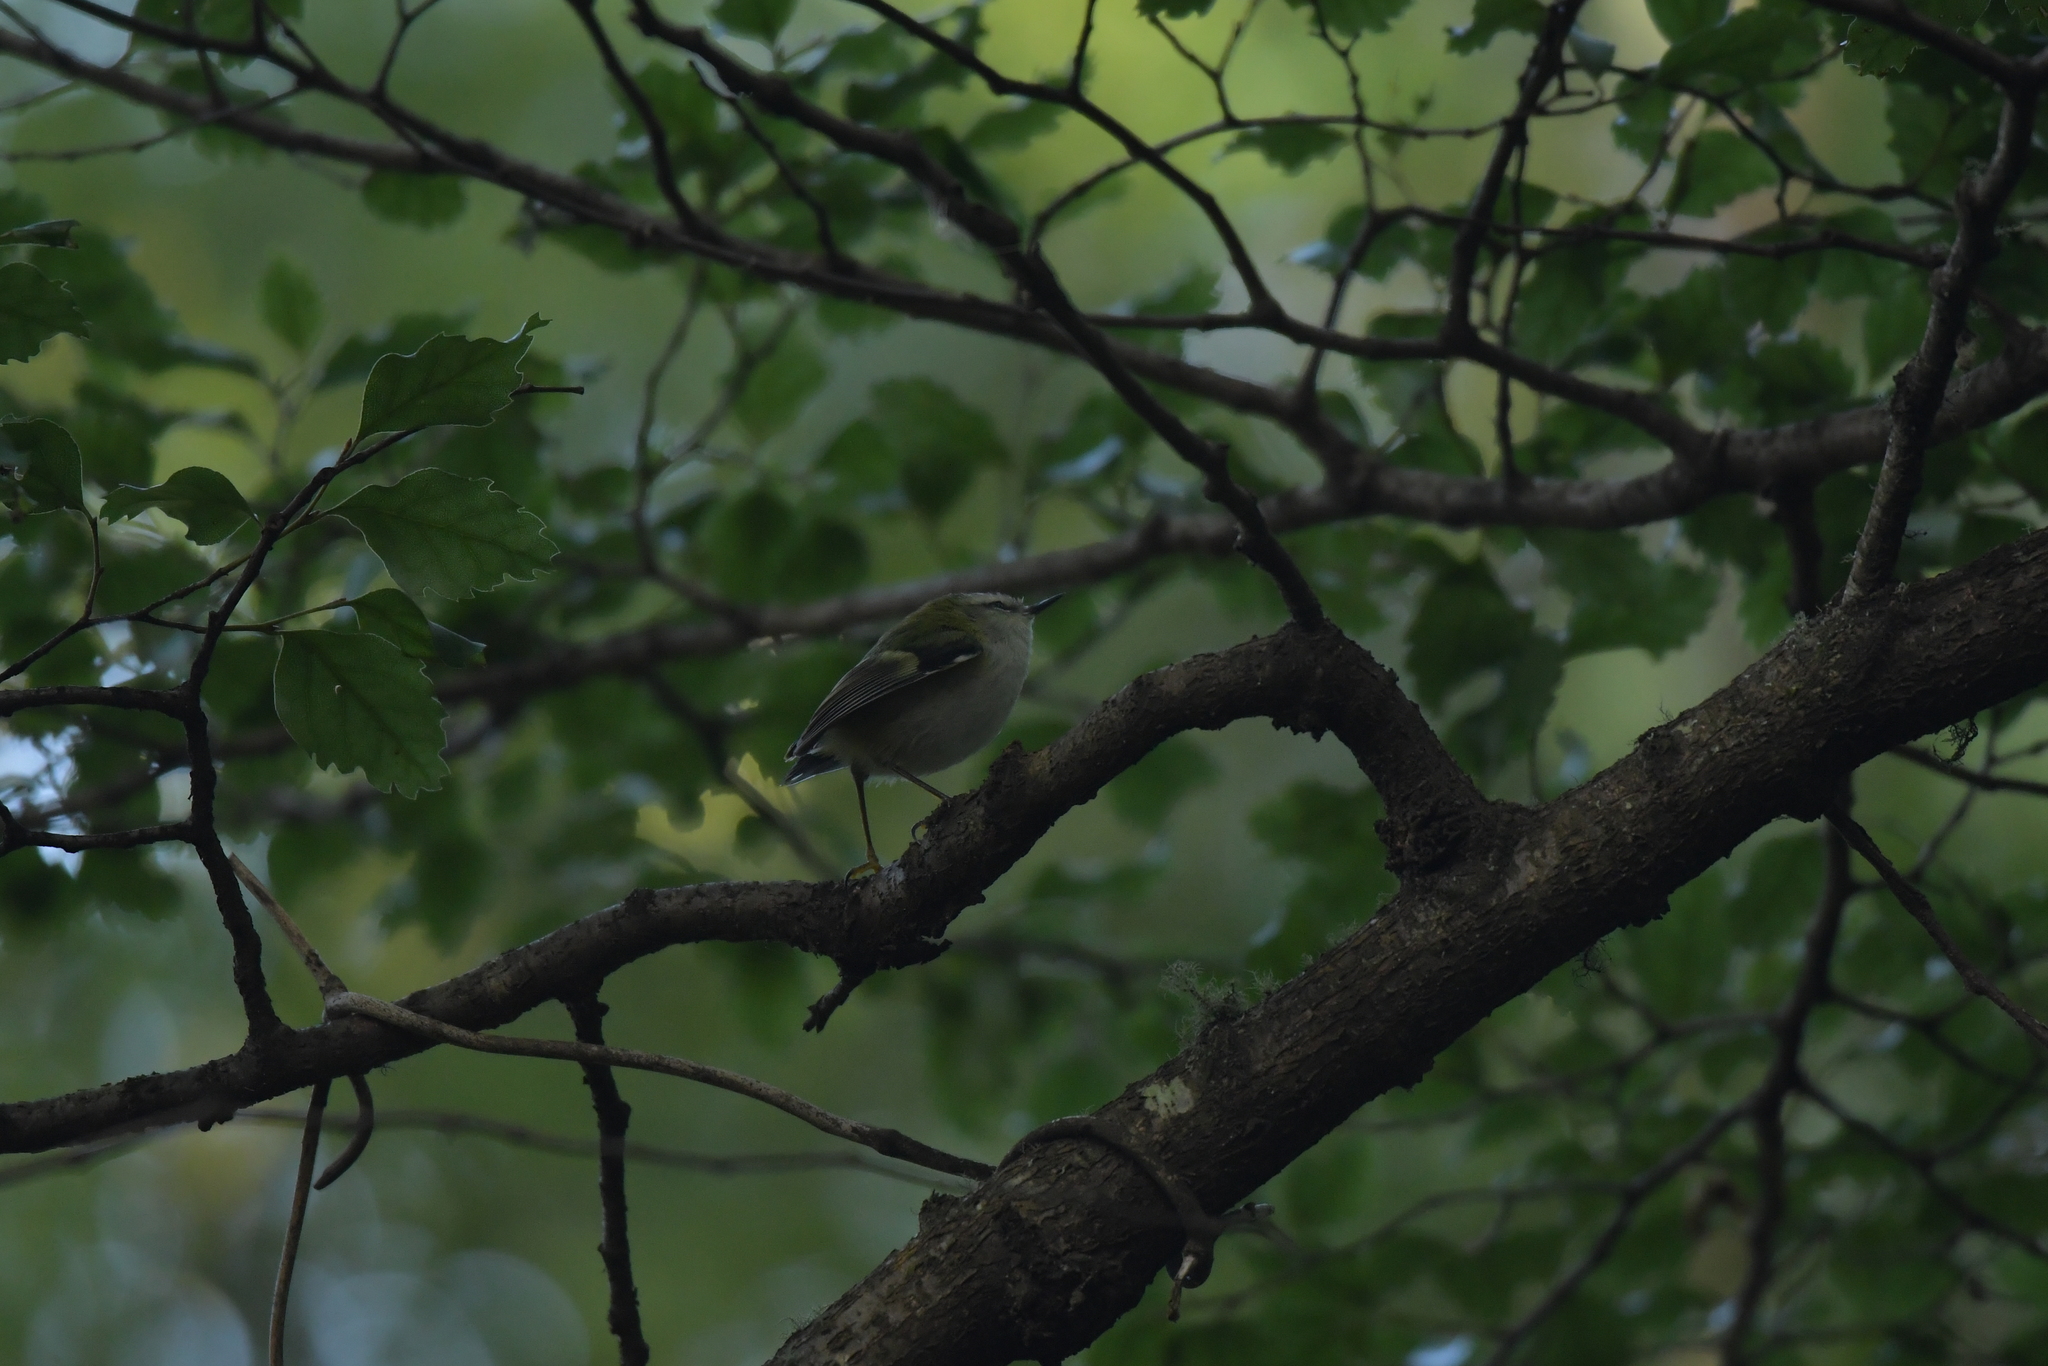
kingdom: Animalia
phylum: Chordata
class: Aves
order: Passeriformes
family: Acanthisittidae
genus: Acanthisitta
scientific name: Acanthisitta chloris
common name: Rifleman
